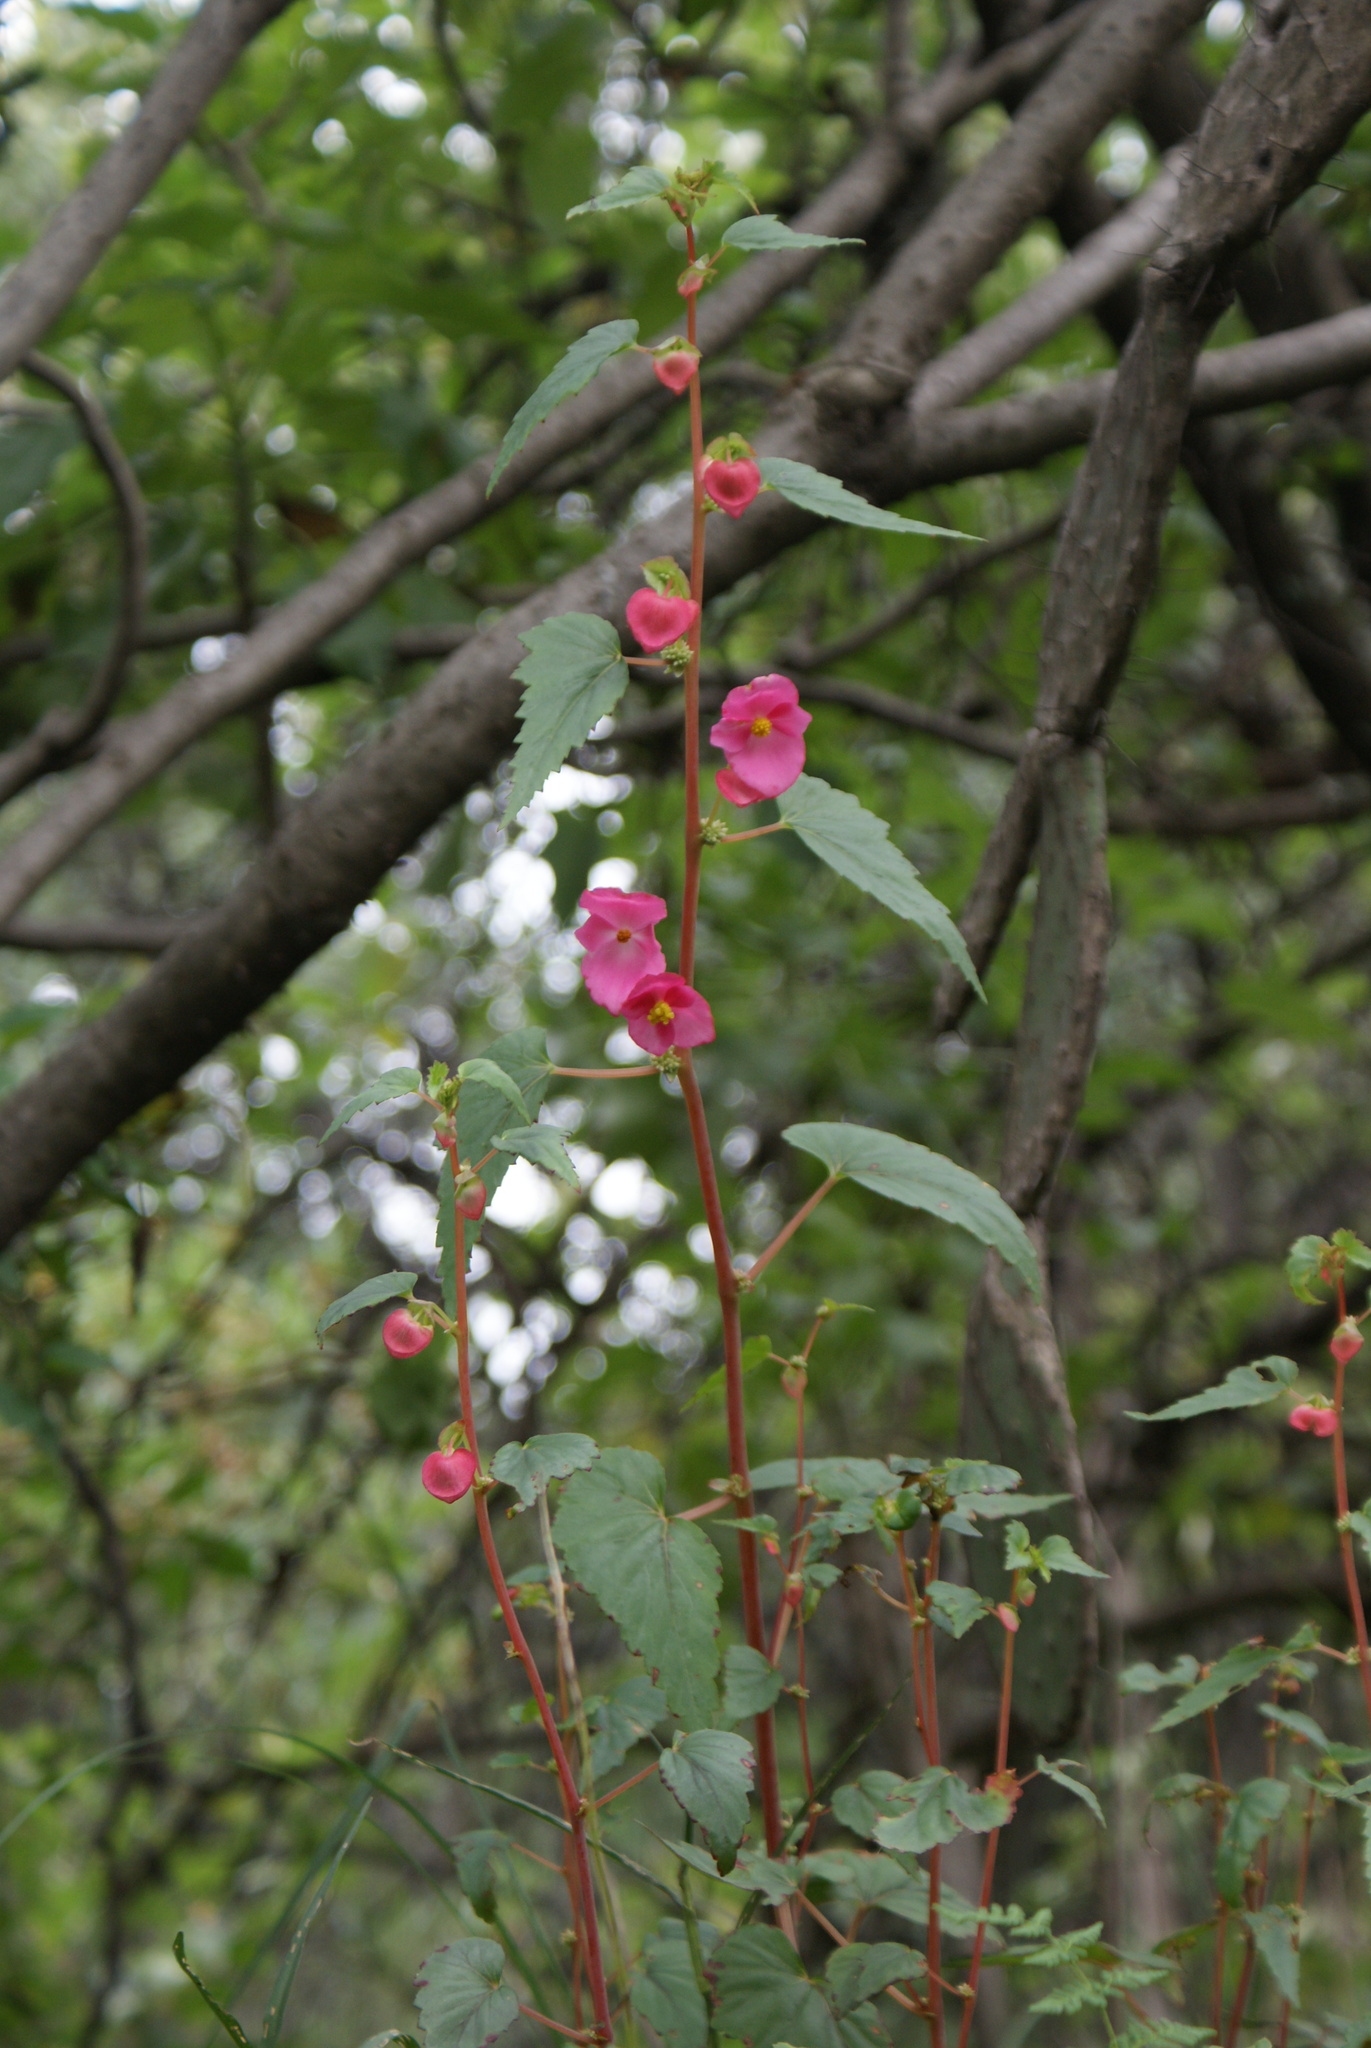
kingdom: Plantae
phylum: Tracheophyta
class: Magnoliopsida
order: Cucurbitales
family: Begoniaceae
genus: Begonia
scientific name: Begonia gracilis
